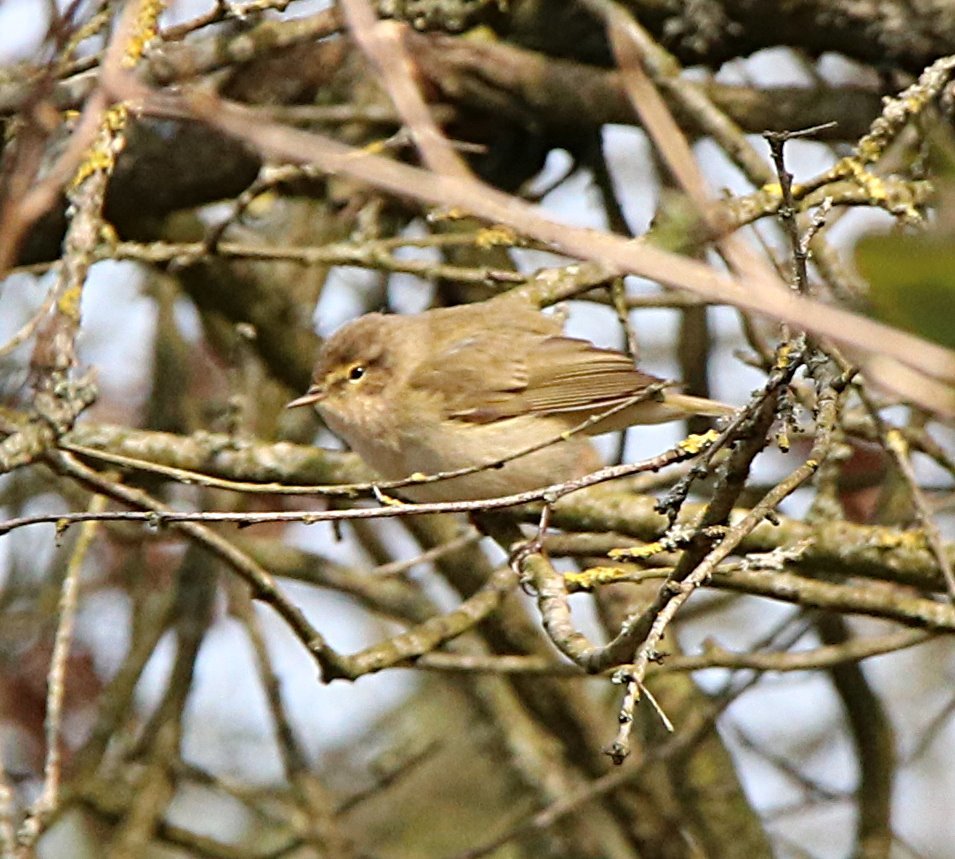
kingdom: Animalia
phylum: Chordata
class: Aves
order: Passeriformes
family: Phylloscopidae
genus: Phylloscopus
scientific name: Phylloscopus collybita
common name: Common chiffchaff
